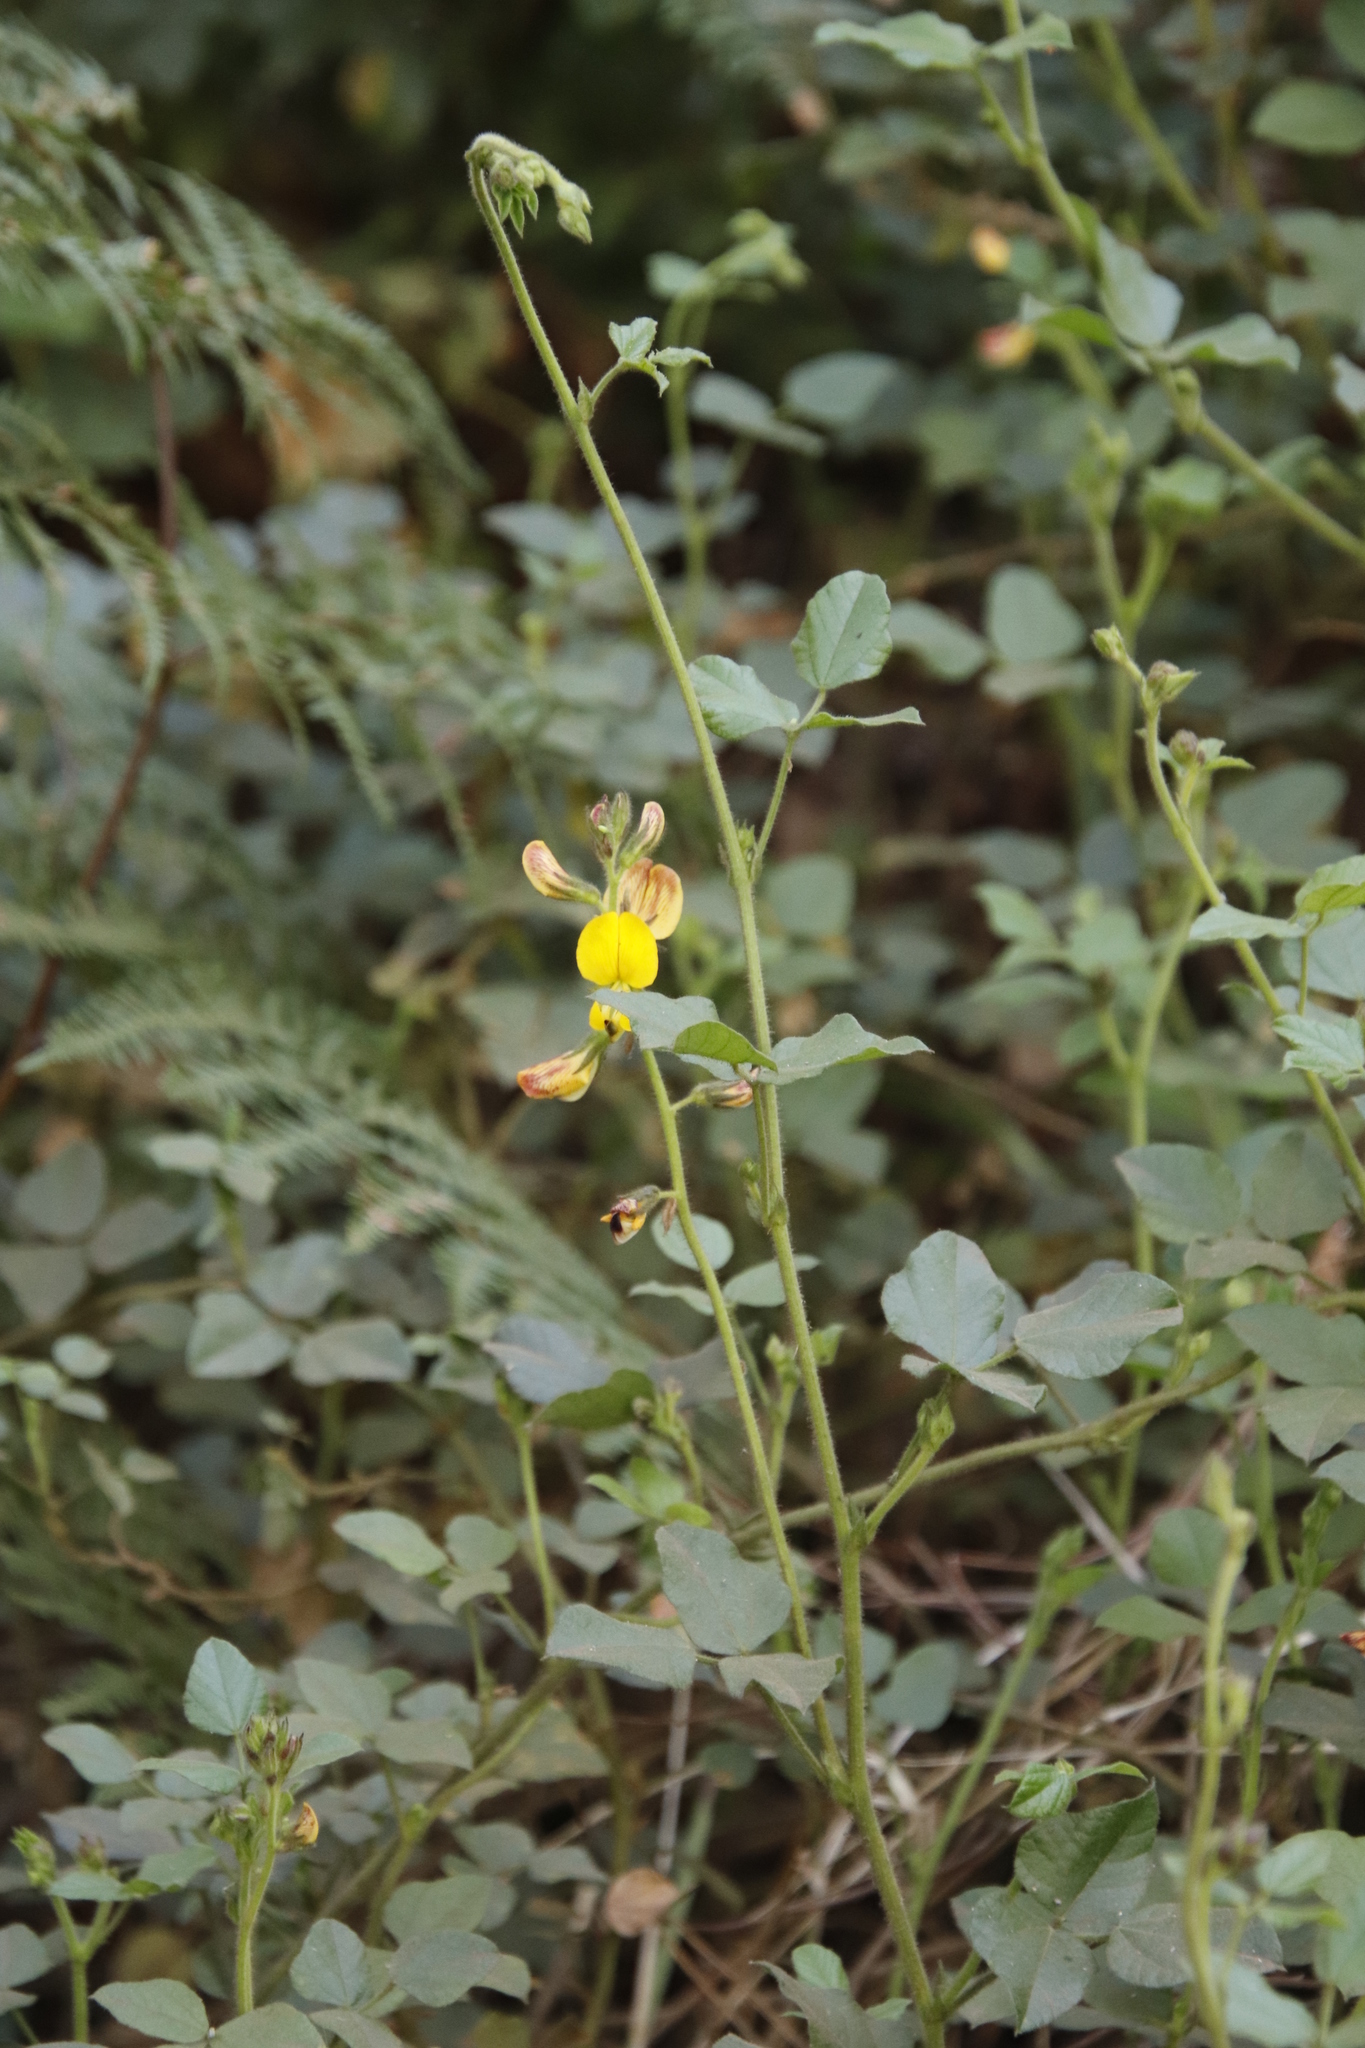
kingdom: Plantae
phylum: Tracheophyta
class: Magnoliopsida
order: Fabales
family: Fabaceae
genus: Bolusafra
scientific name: Bolusafra bituminosa
